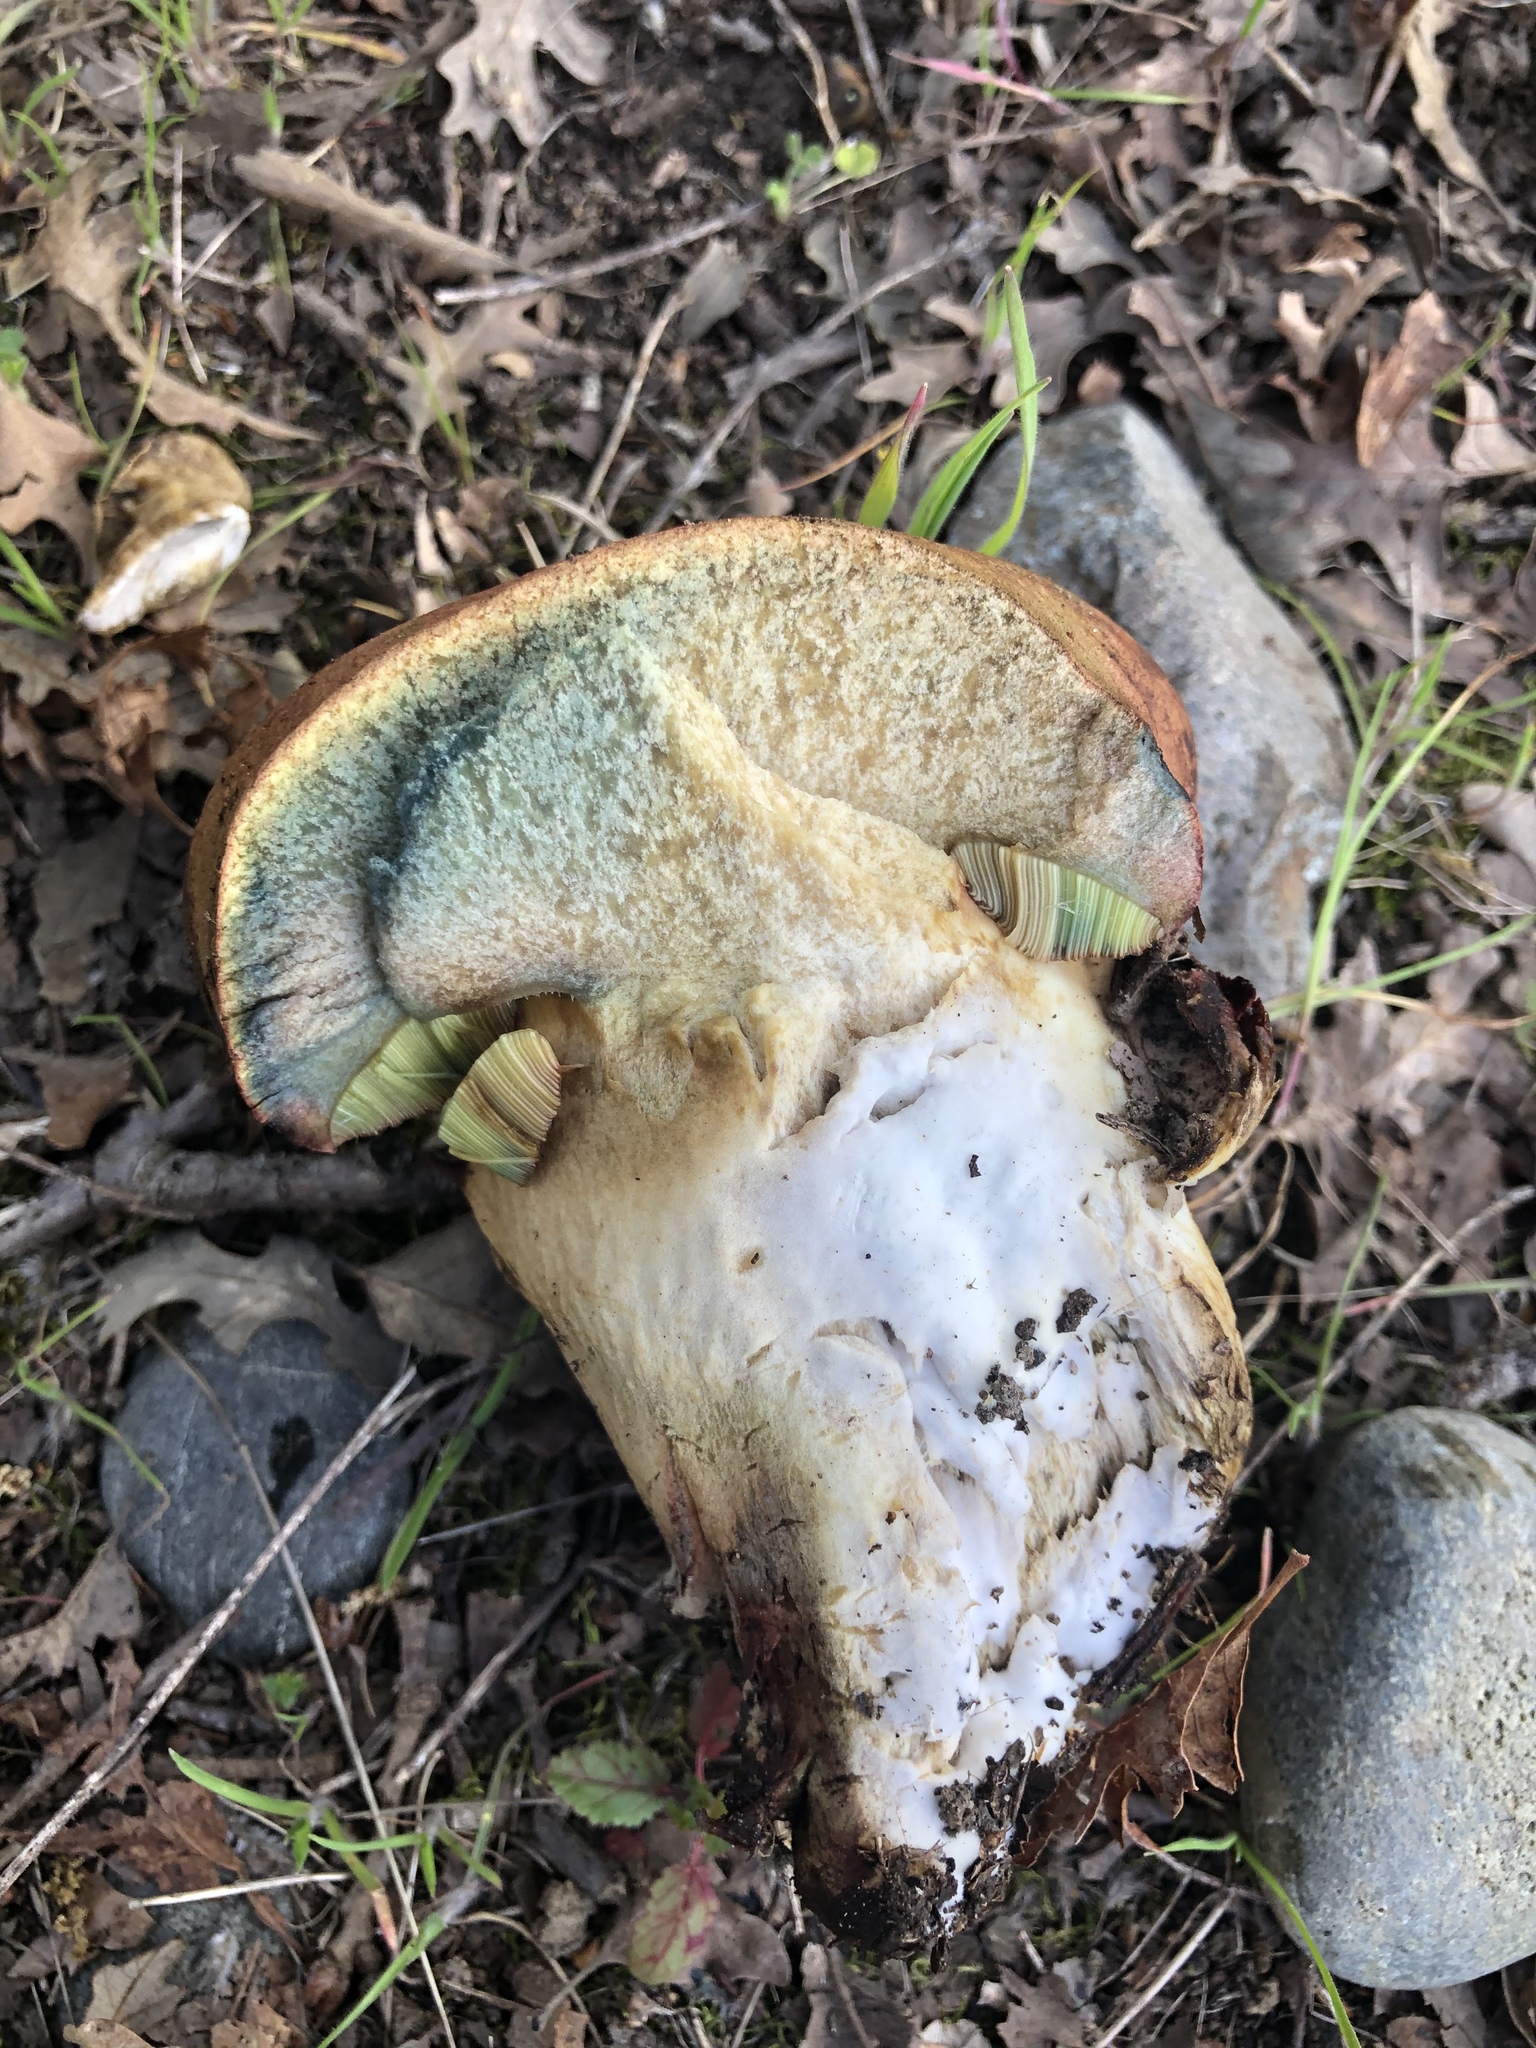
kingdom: Fungi
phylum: Basidiomycota
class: Agaricomycetes
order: Boletales
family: Boletaceae
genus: Suillellus
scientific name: Suillellus amygdalinus
